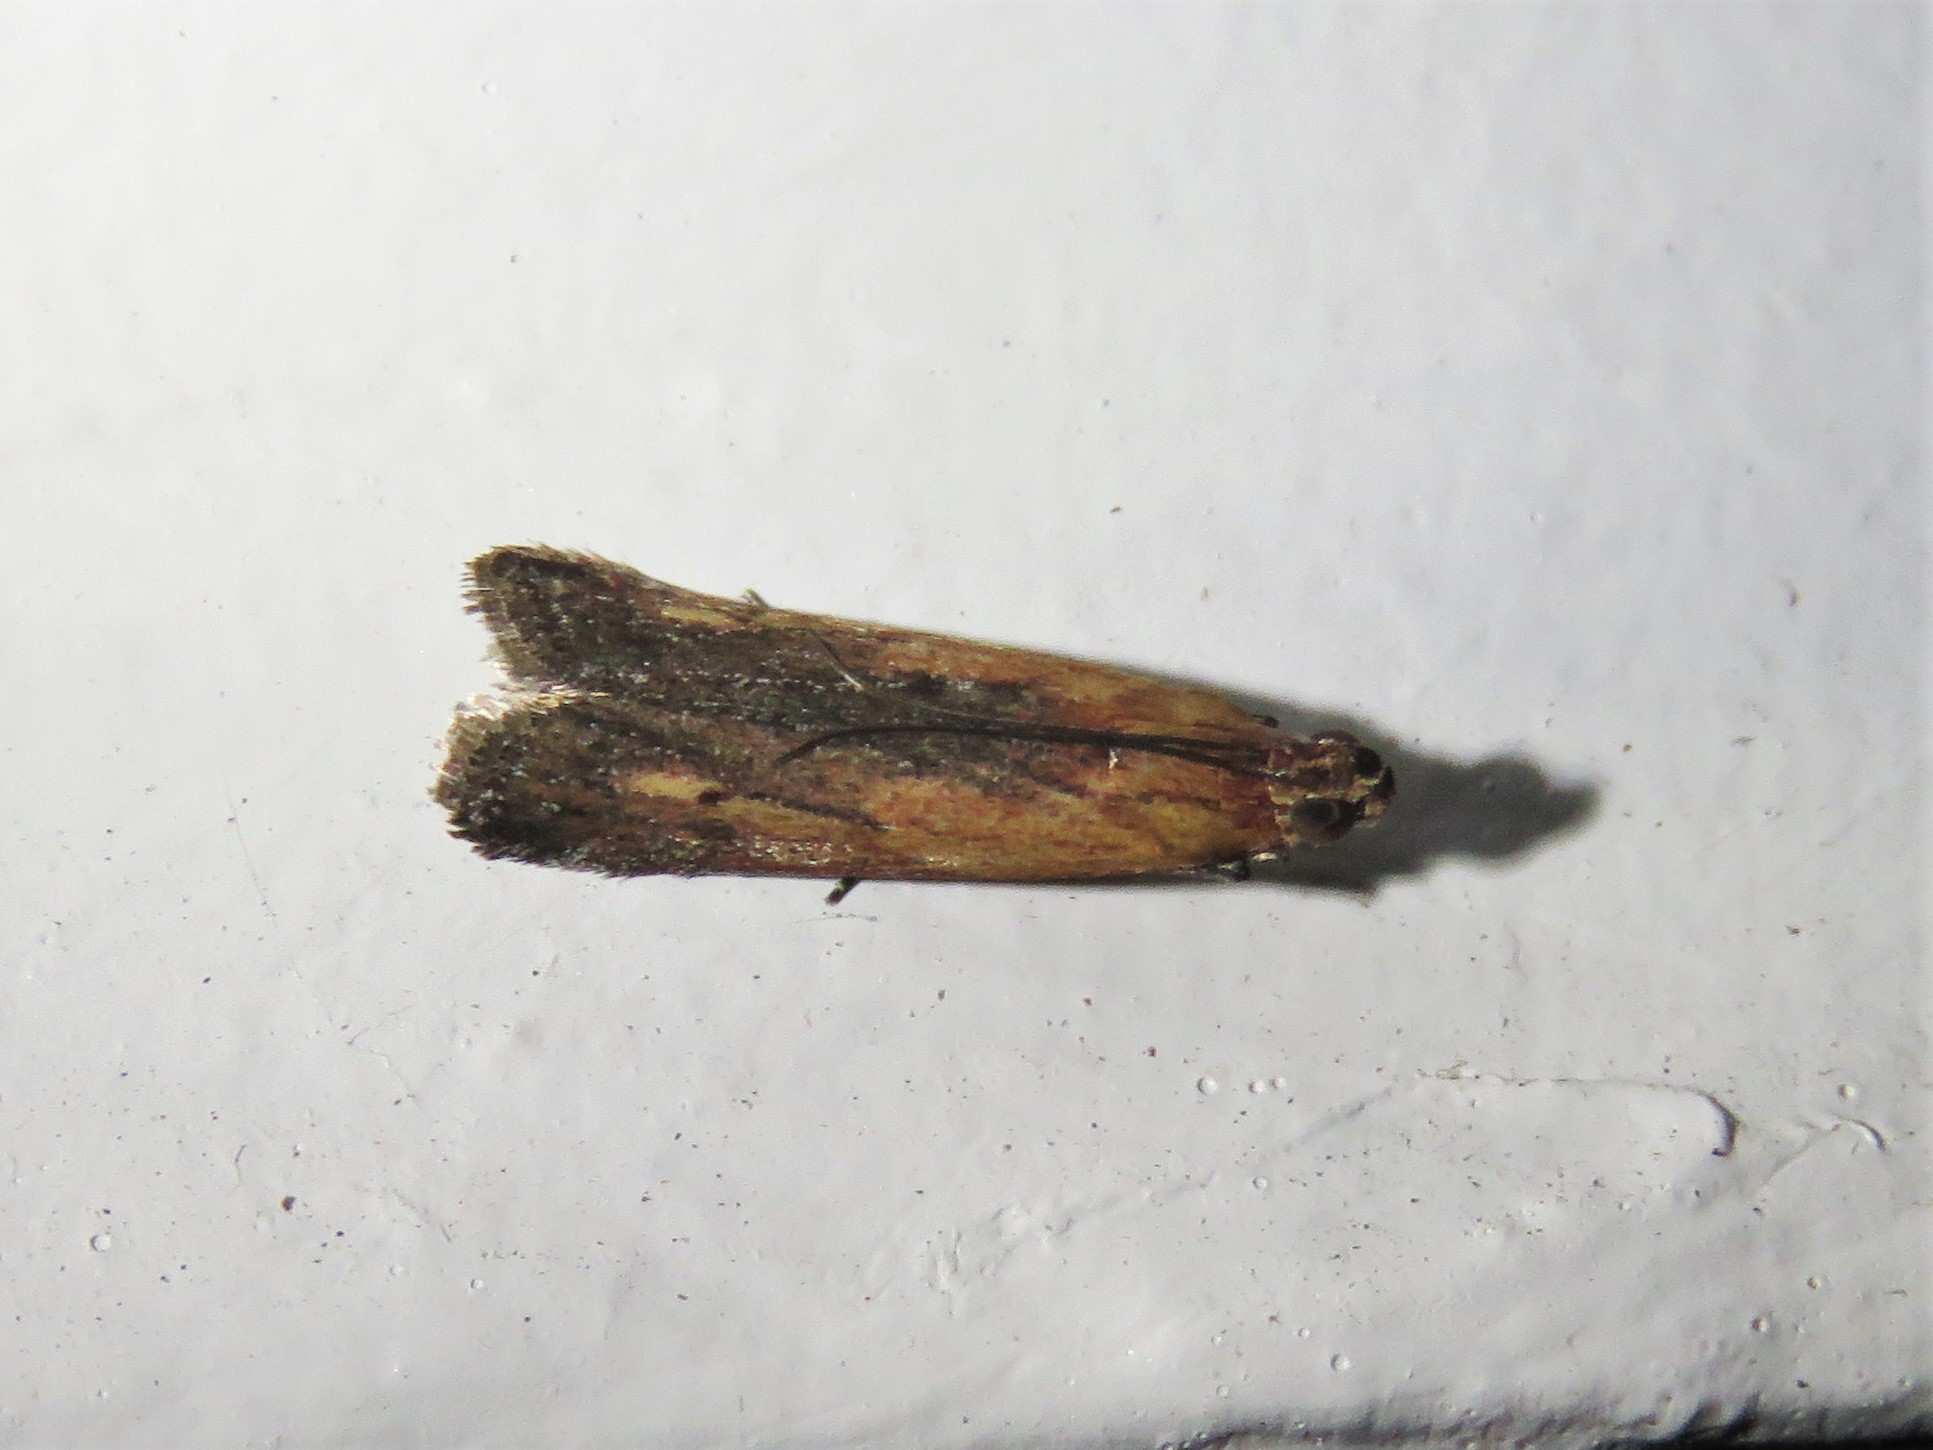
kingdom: Animalia
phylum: Arthropoda
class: Insecta
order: Lepidoptera
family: Pyralidae
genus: Elasmopalpus
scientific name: Elasmopalpus lignosella
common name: Lesser cornstalk borer
